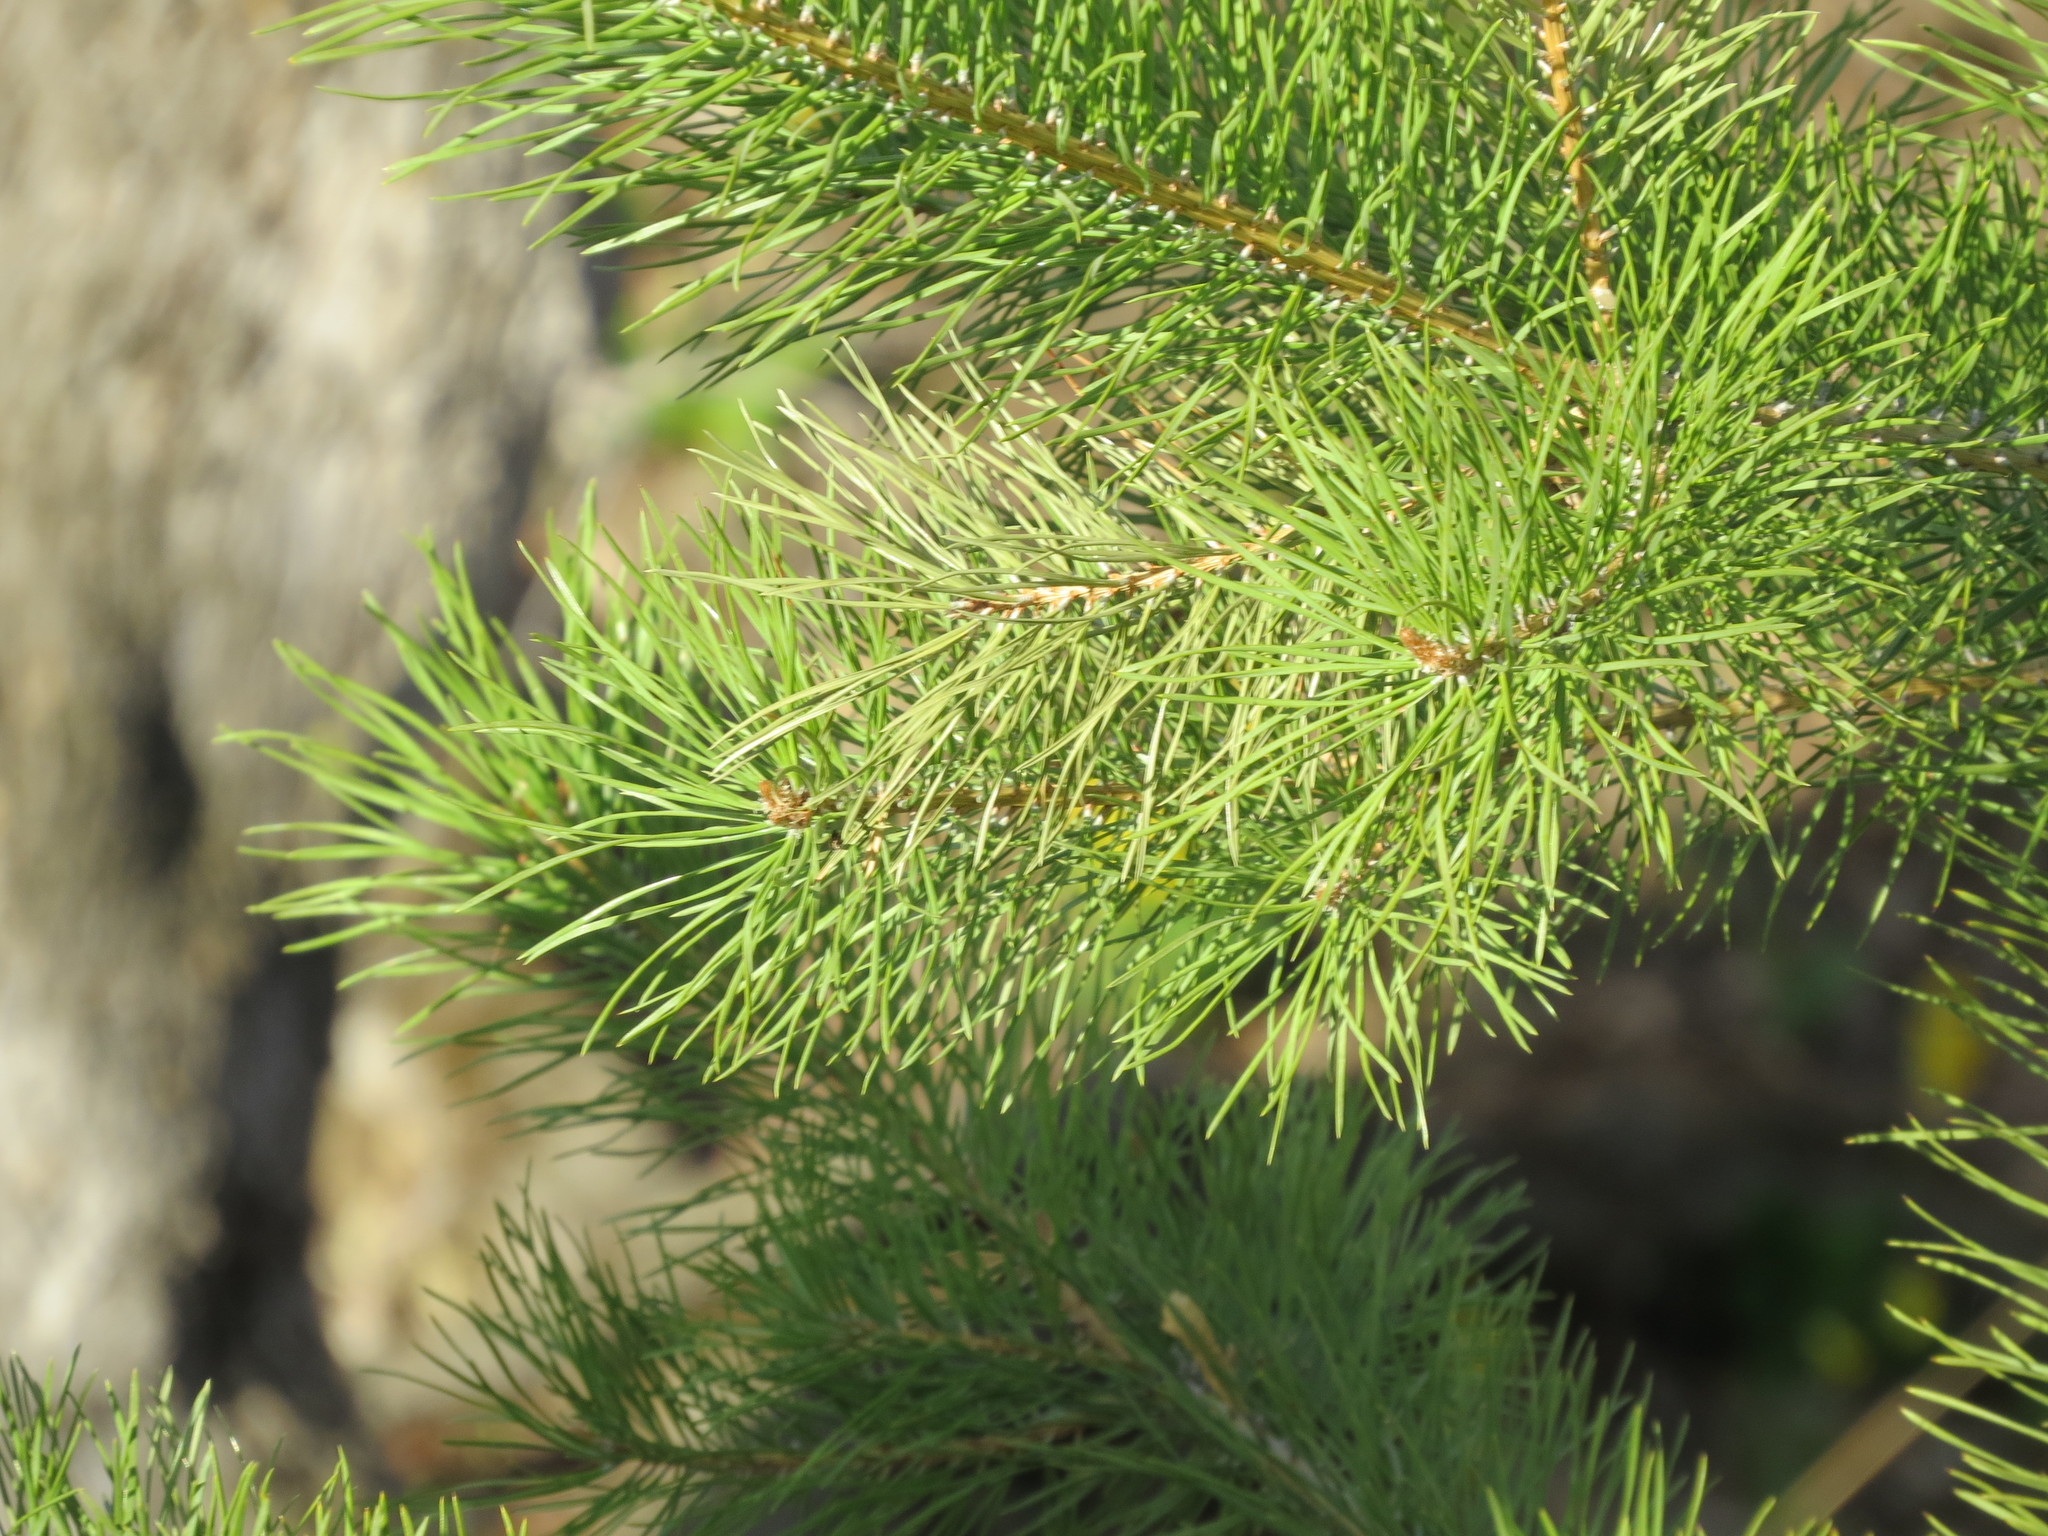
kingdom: Plantae
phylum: Tracheophyta
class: Pinopsida
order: Pinales
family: Pinaceae
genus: Pinus
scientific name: Pinus sylvestris
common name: Scots pine
